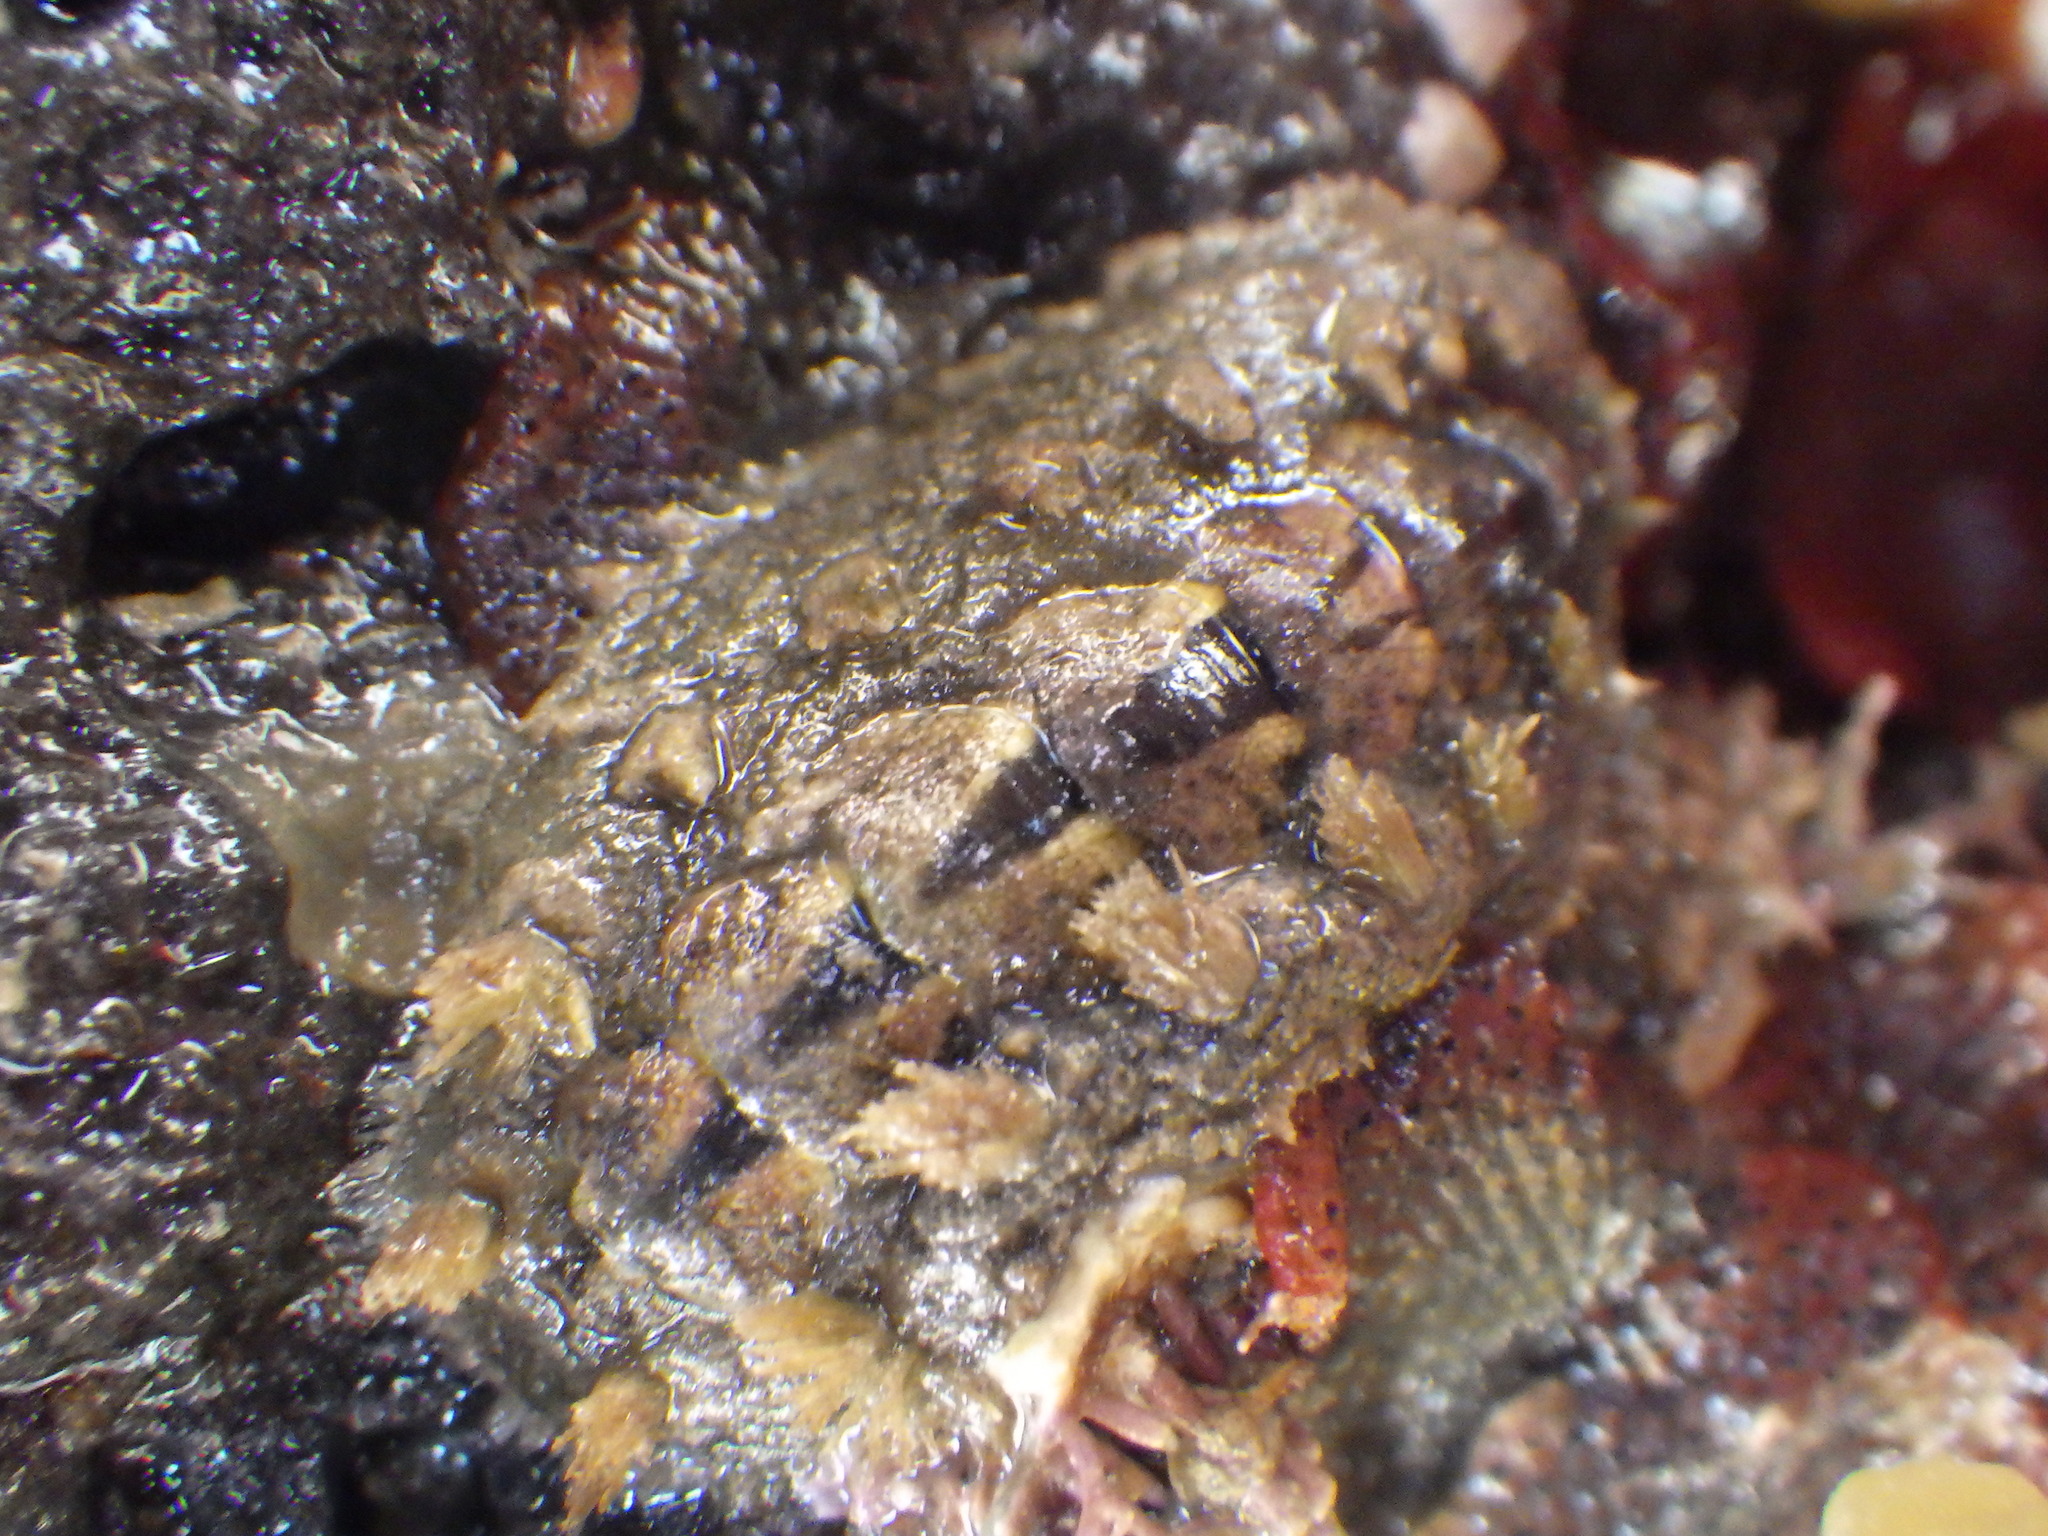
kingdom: Animalia
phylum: Mollusca
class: Polyplacophora
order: Chitonida
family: Acanthochitonidae
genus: Acanthochitona
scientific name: Acanthochitona zelandica
